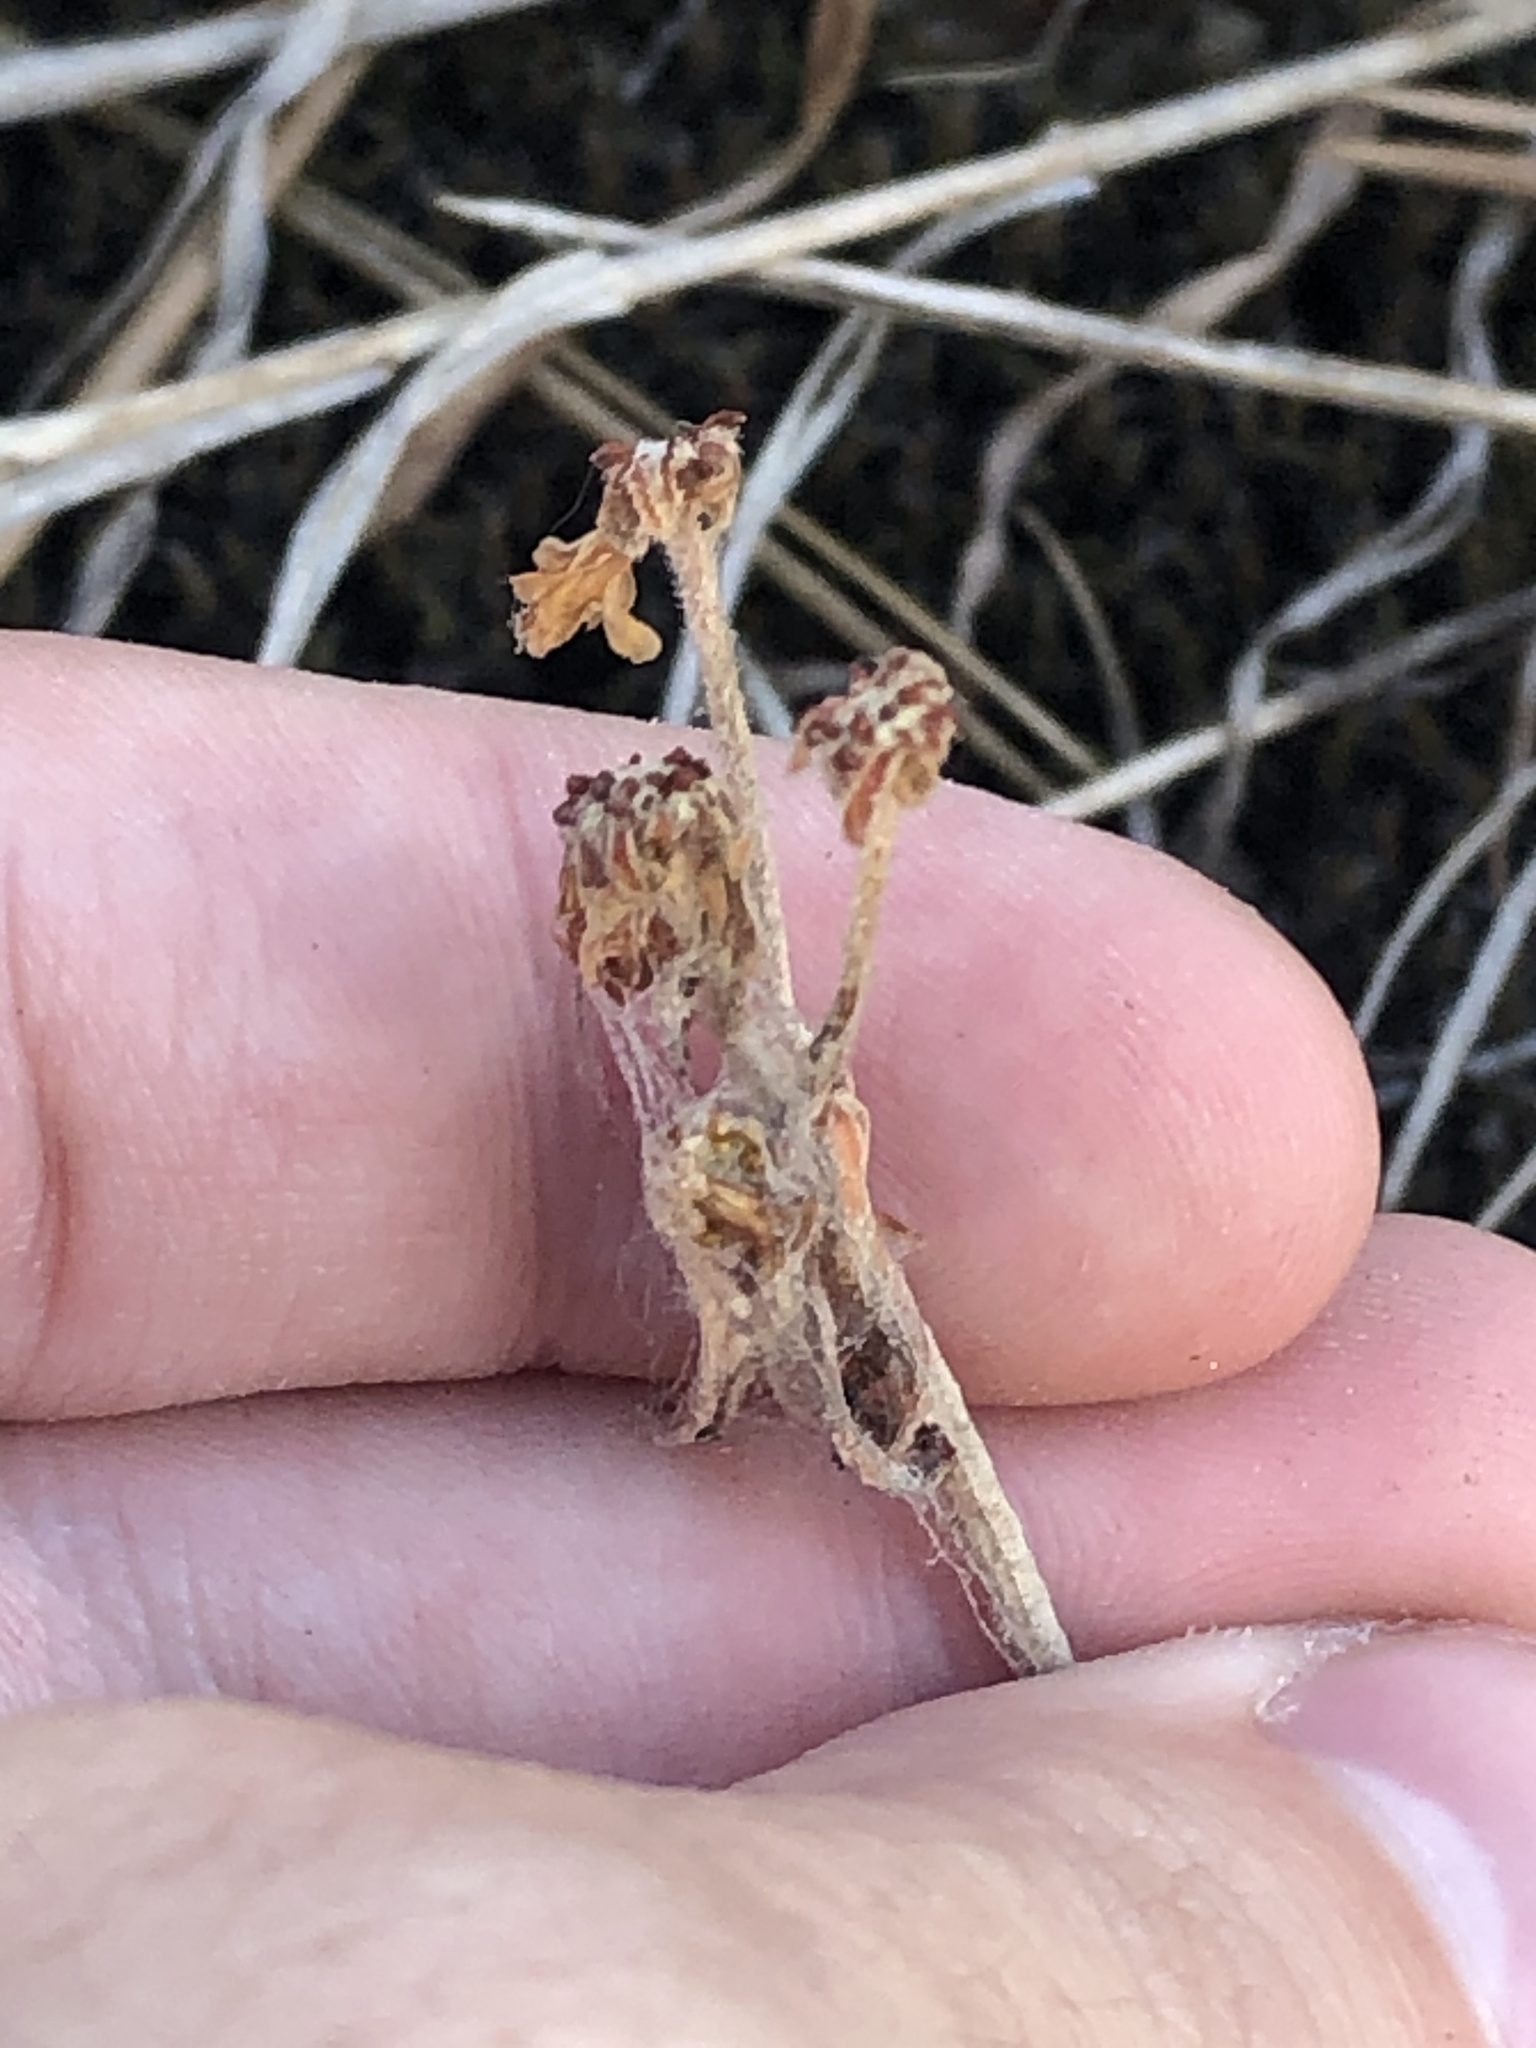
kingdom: Plantae
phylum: Tracheophyta
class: Magnoliopsida
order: Caryophyllales
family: Polygonaceae
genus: Eriogonum
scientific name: Eriogonum umbellatum
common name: Sulfur-buckwheat
